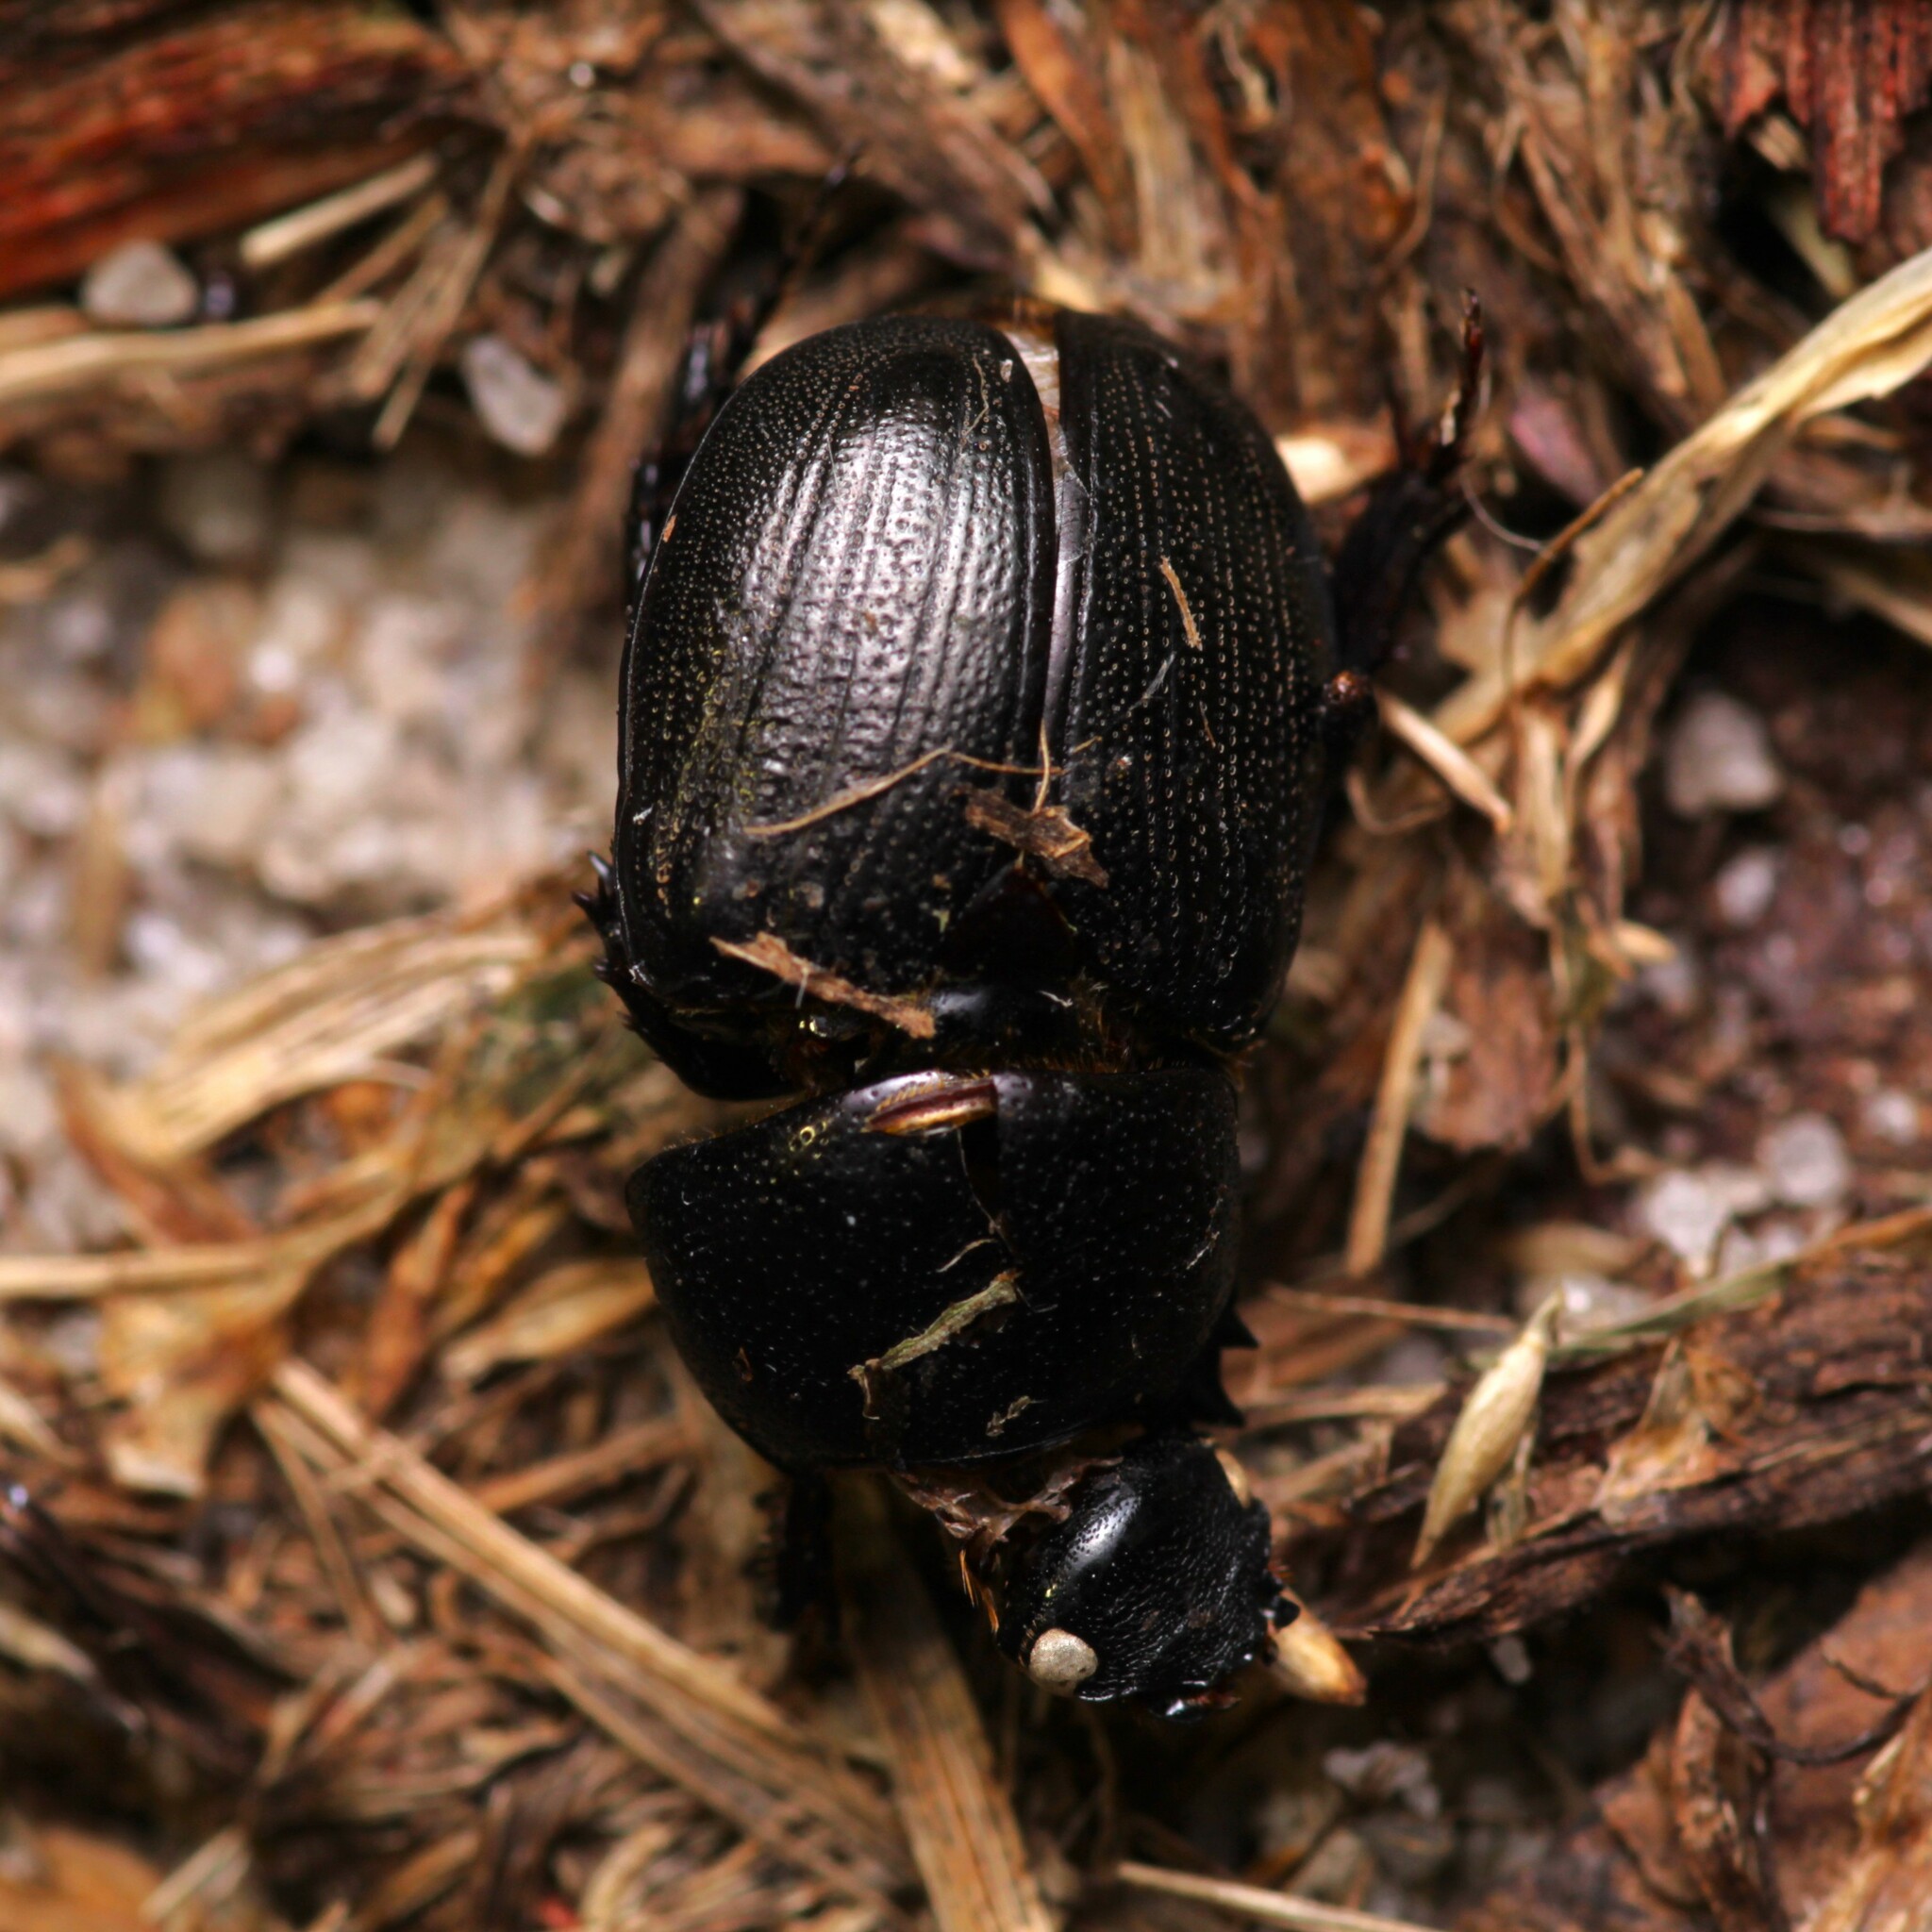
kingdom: Animalia
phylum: Arthropoda
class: Insecta
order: Coleoptera
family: Scarabaeidae
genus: Euetheola
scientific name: Euetheola humilis
